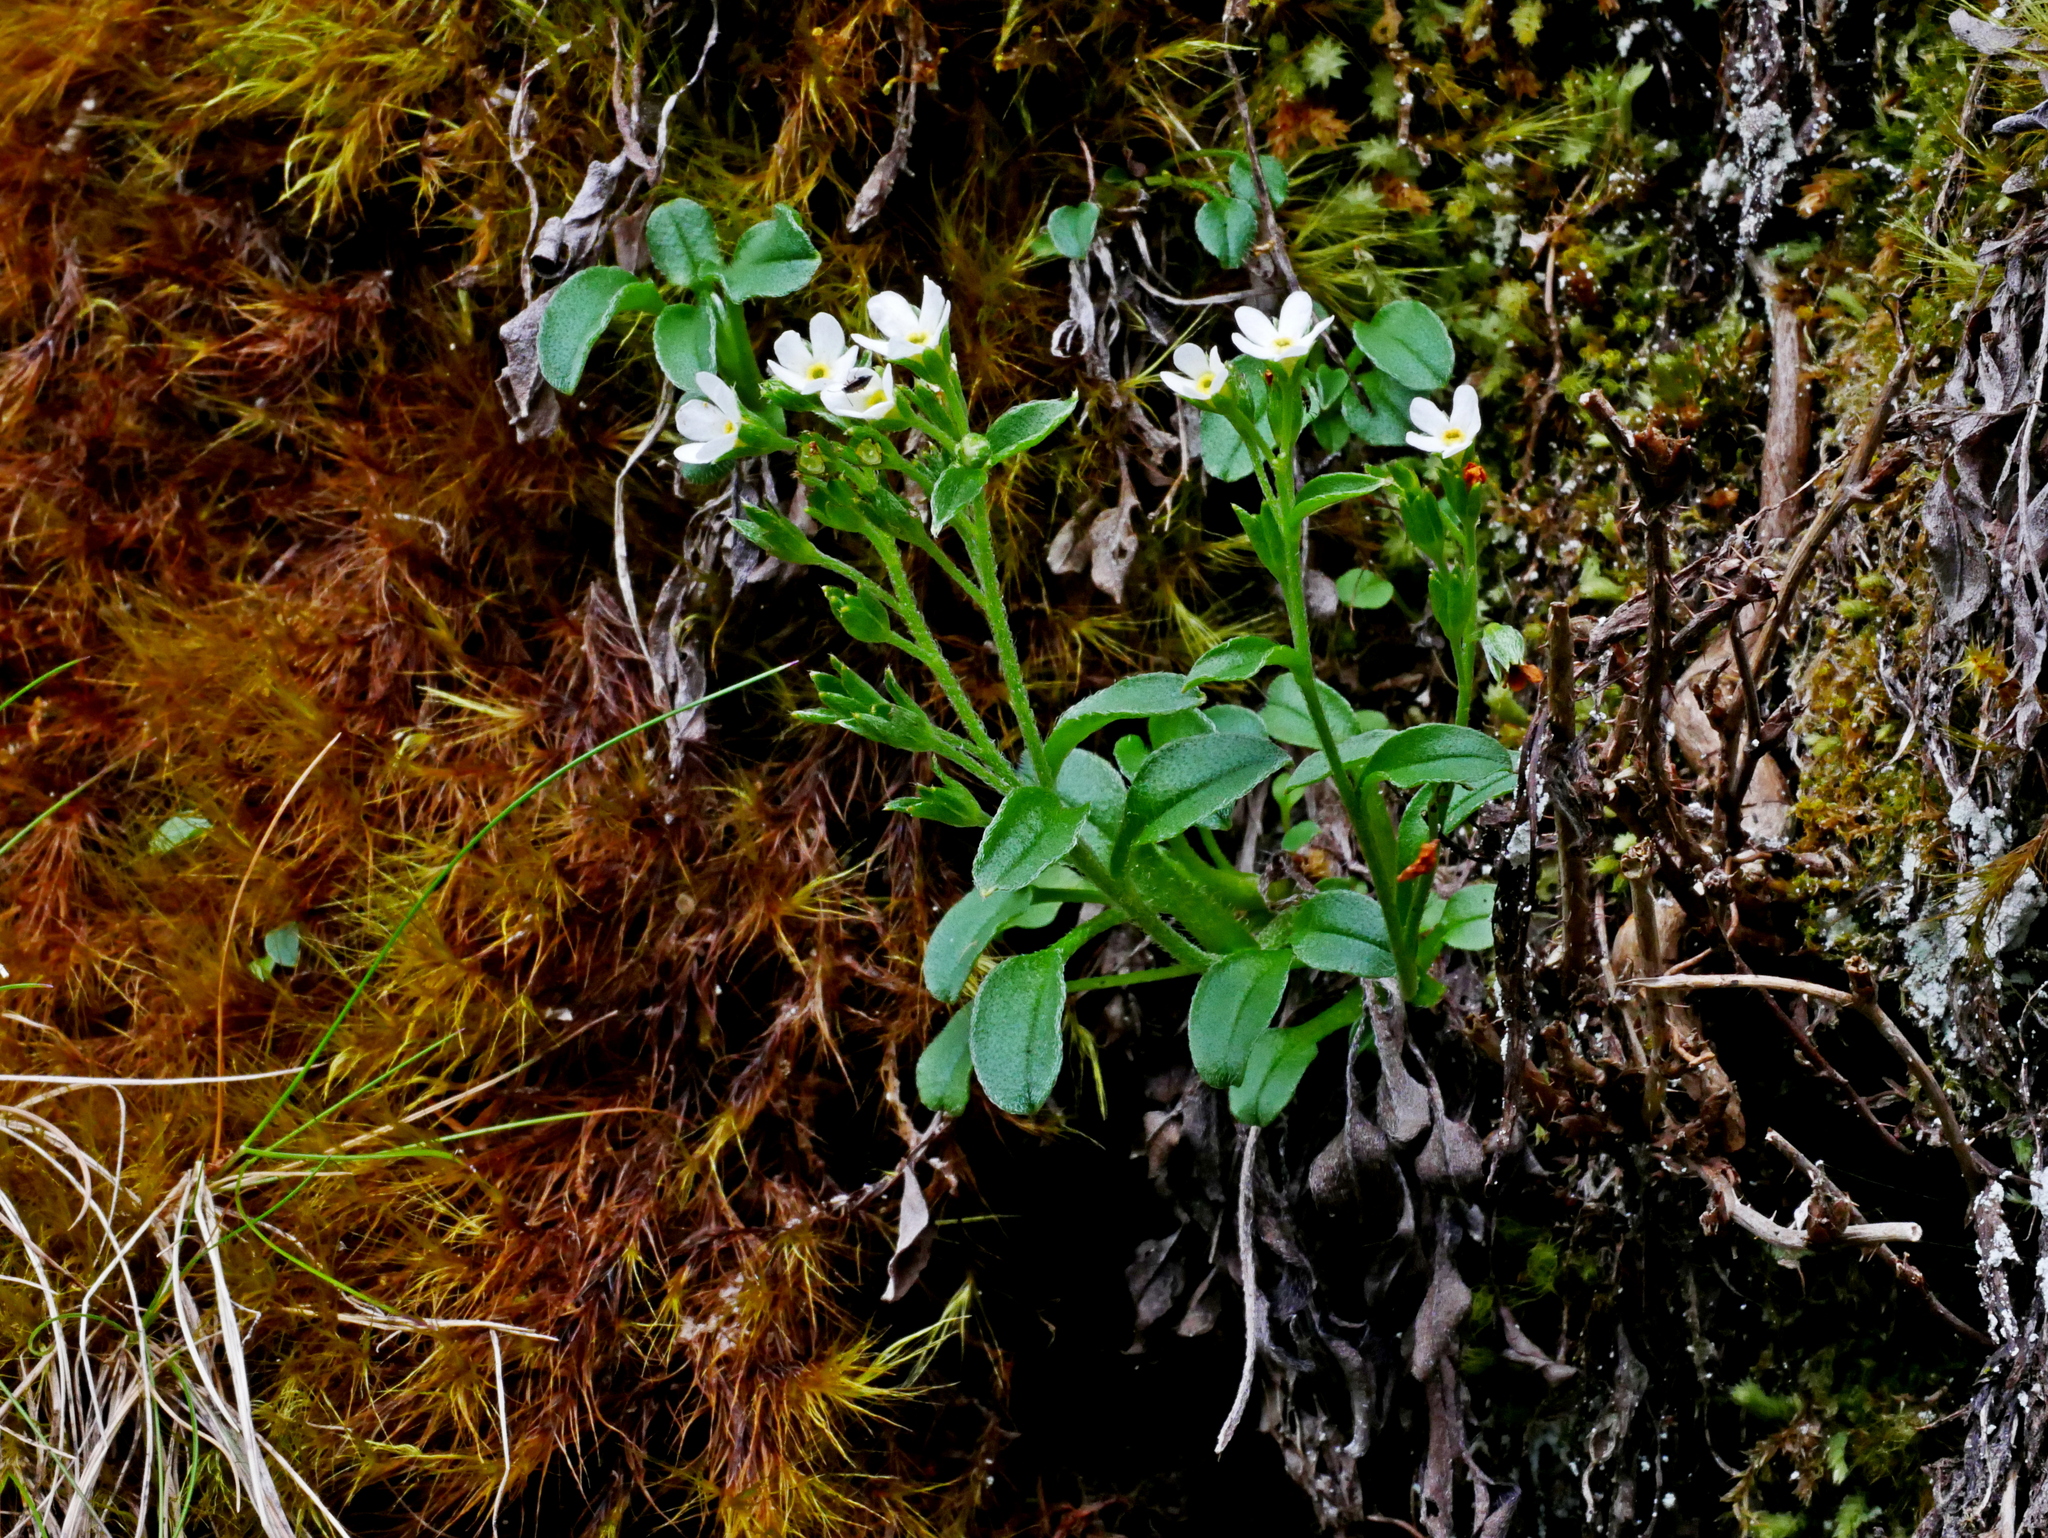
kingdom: Plantae
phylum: Tracheophyta
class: Magnoliopsida
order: Boraginales
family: Boraginaceae
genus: Trigonotis
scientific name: Trigonotis nankotaizanensis
